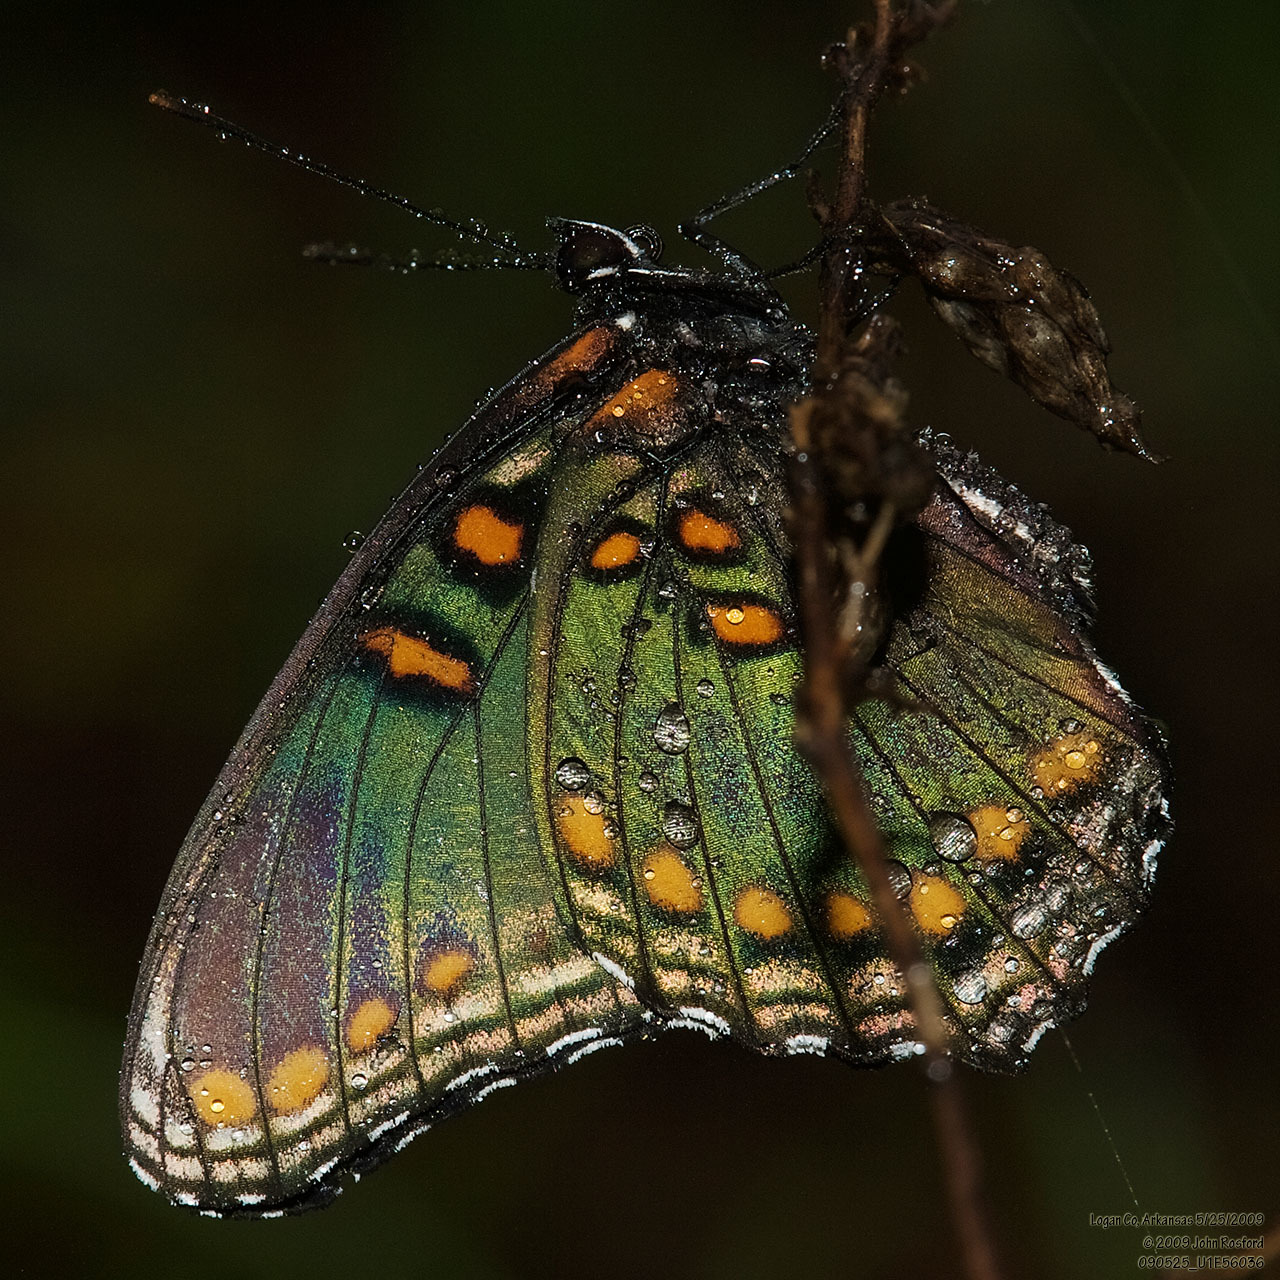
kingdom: Animalia
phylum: Arthropoda
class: Insecta
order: Lepidoptera
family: Nymphalidae
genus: Limenitis
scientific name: Limenitis astyanax
